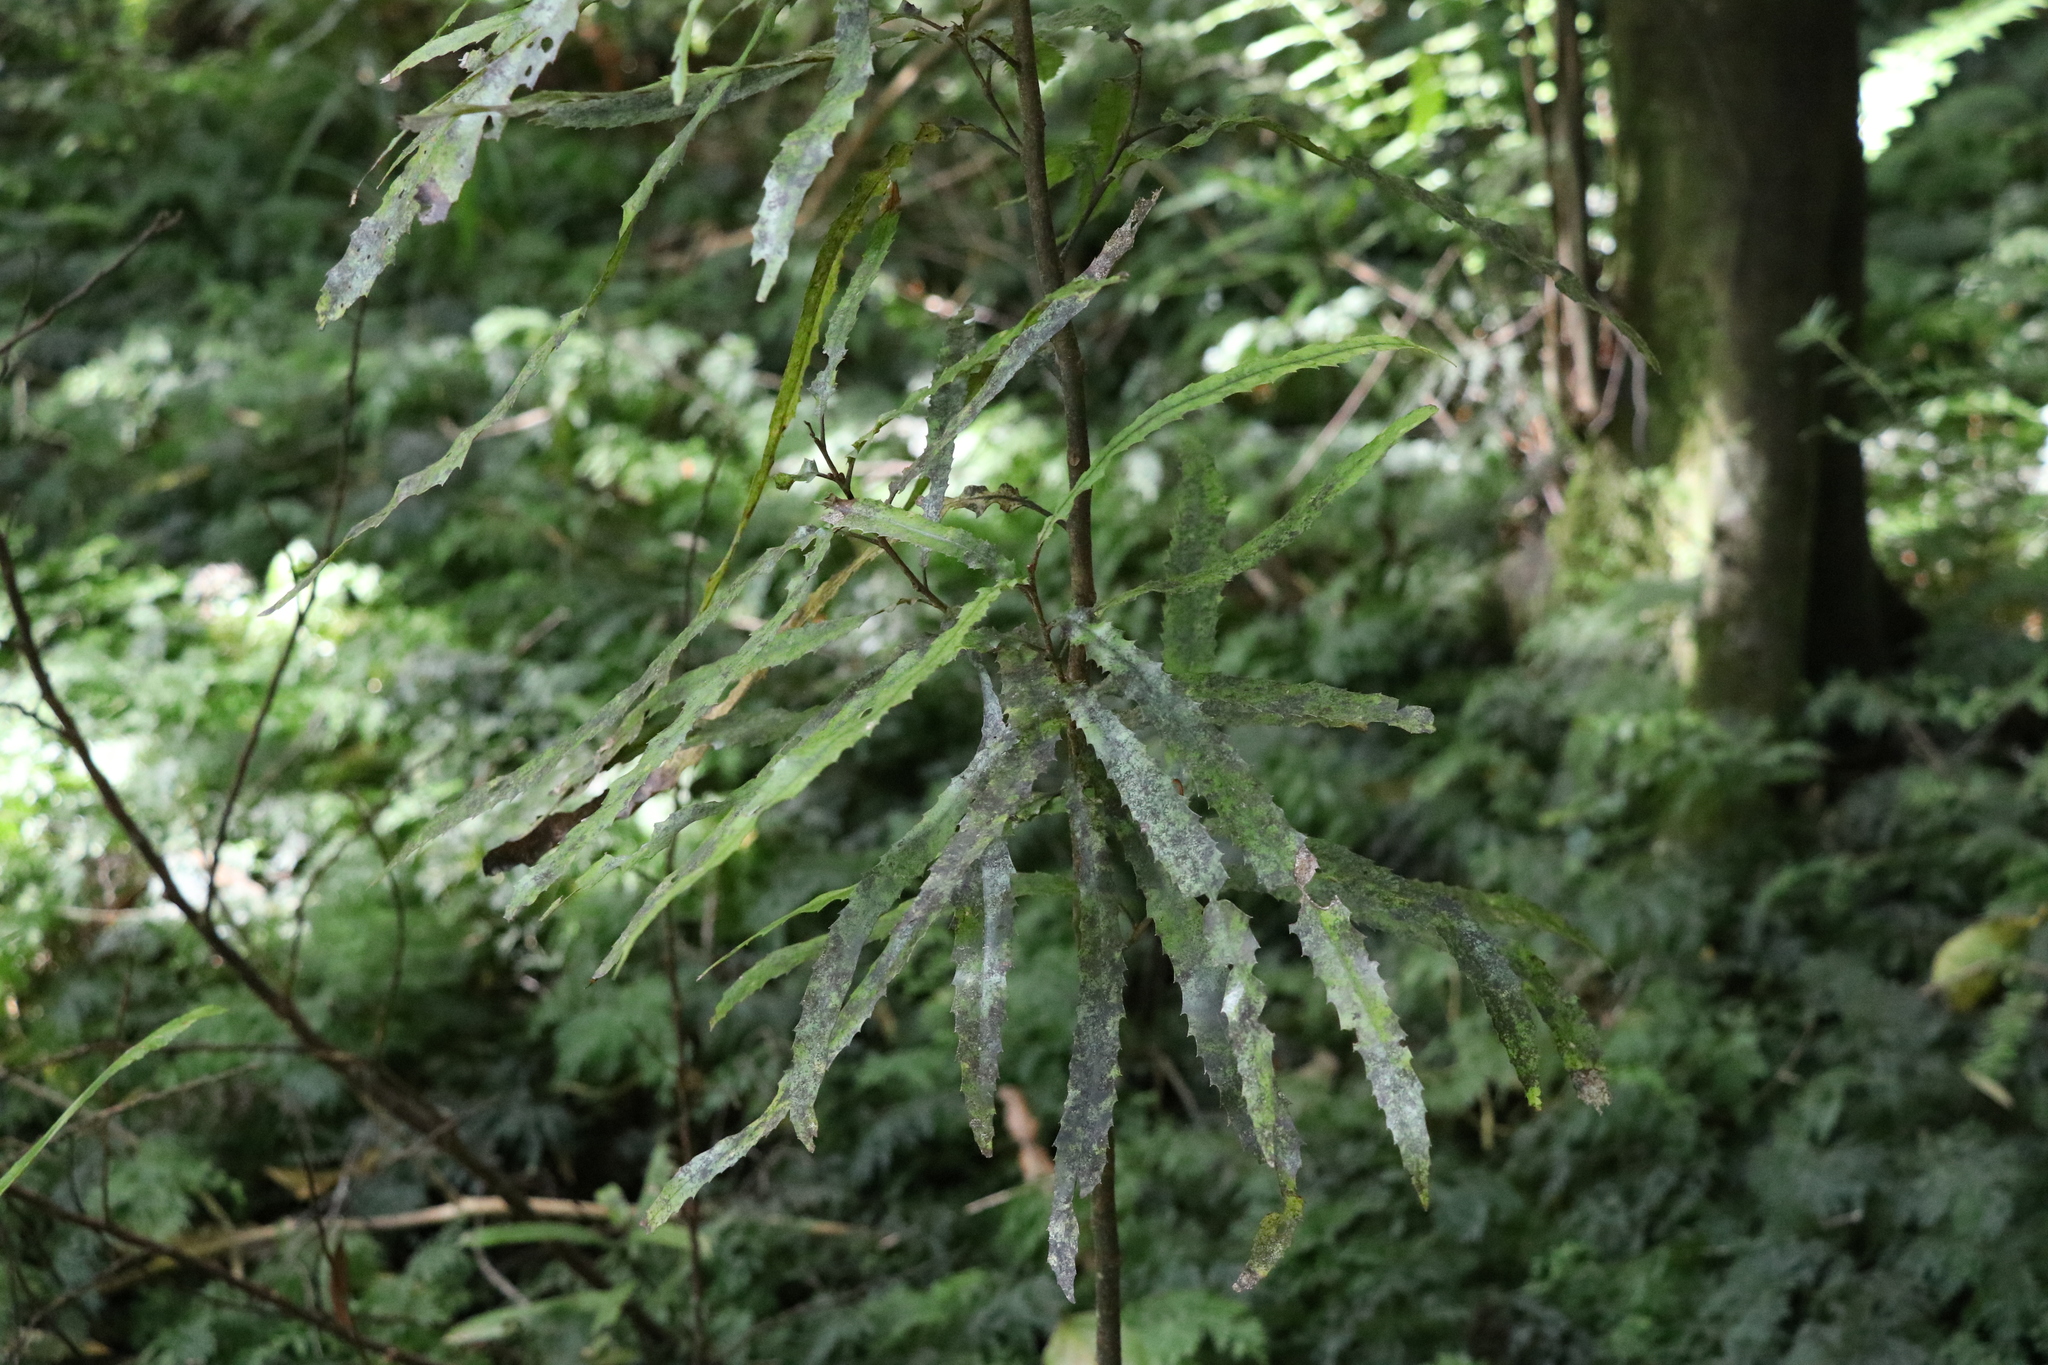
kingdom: Plantae
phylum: Tracheophyta
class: Magnoliopsida
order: Proteales
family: Proteaceae
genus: Knightia
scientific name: Knightia excelsa
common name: New zealand-honeysuckle
